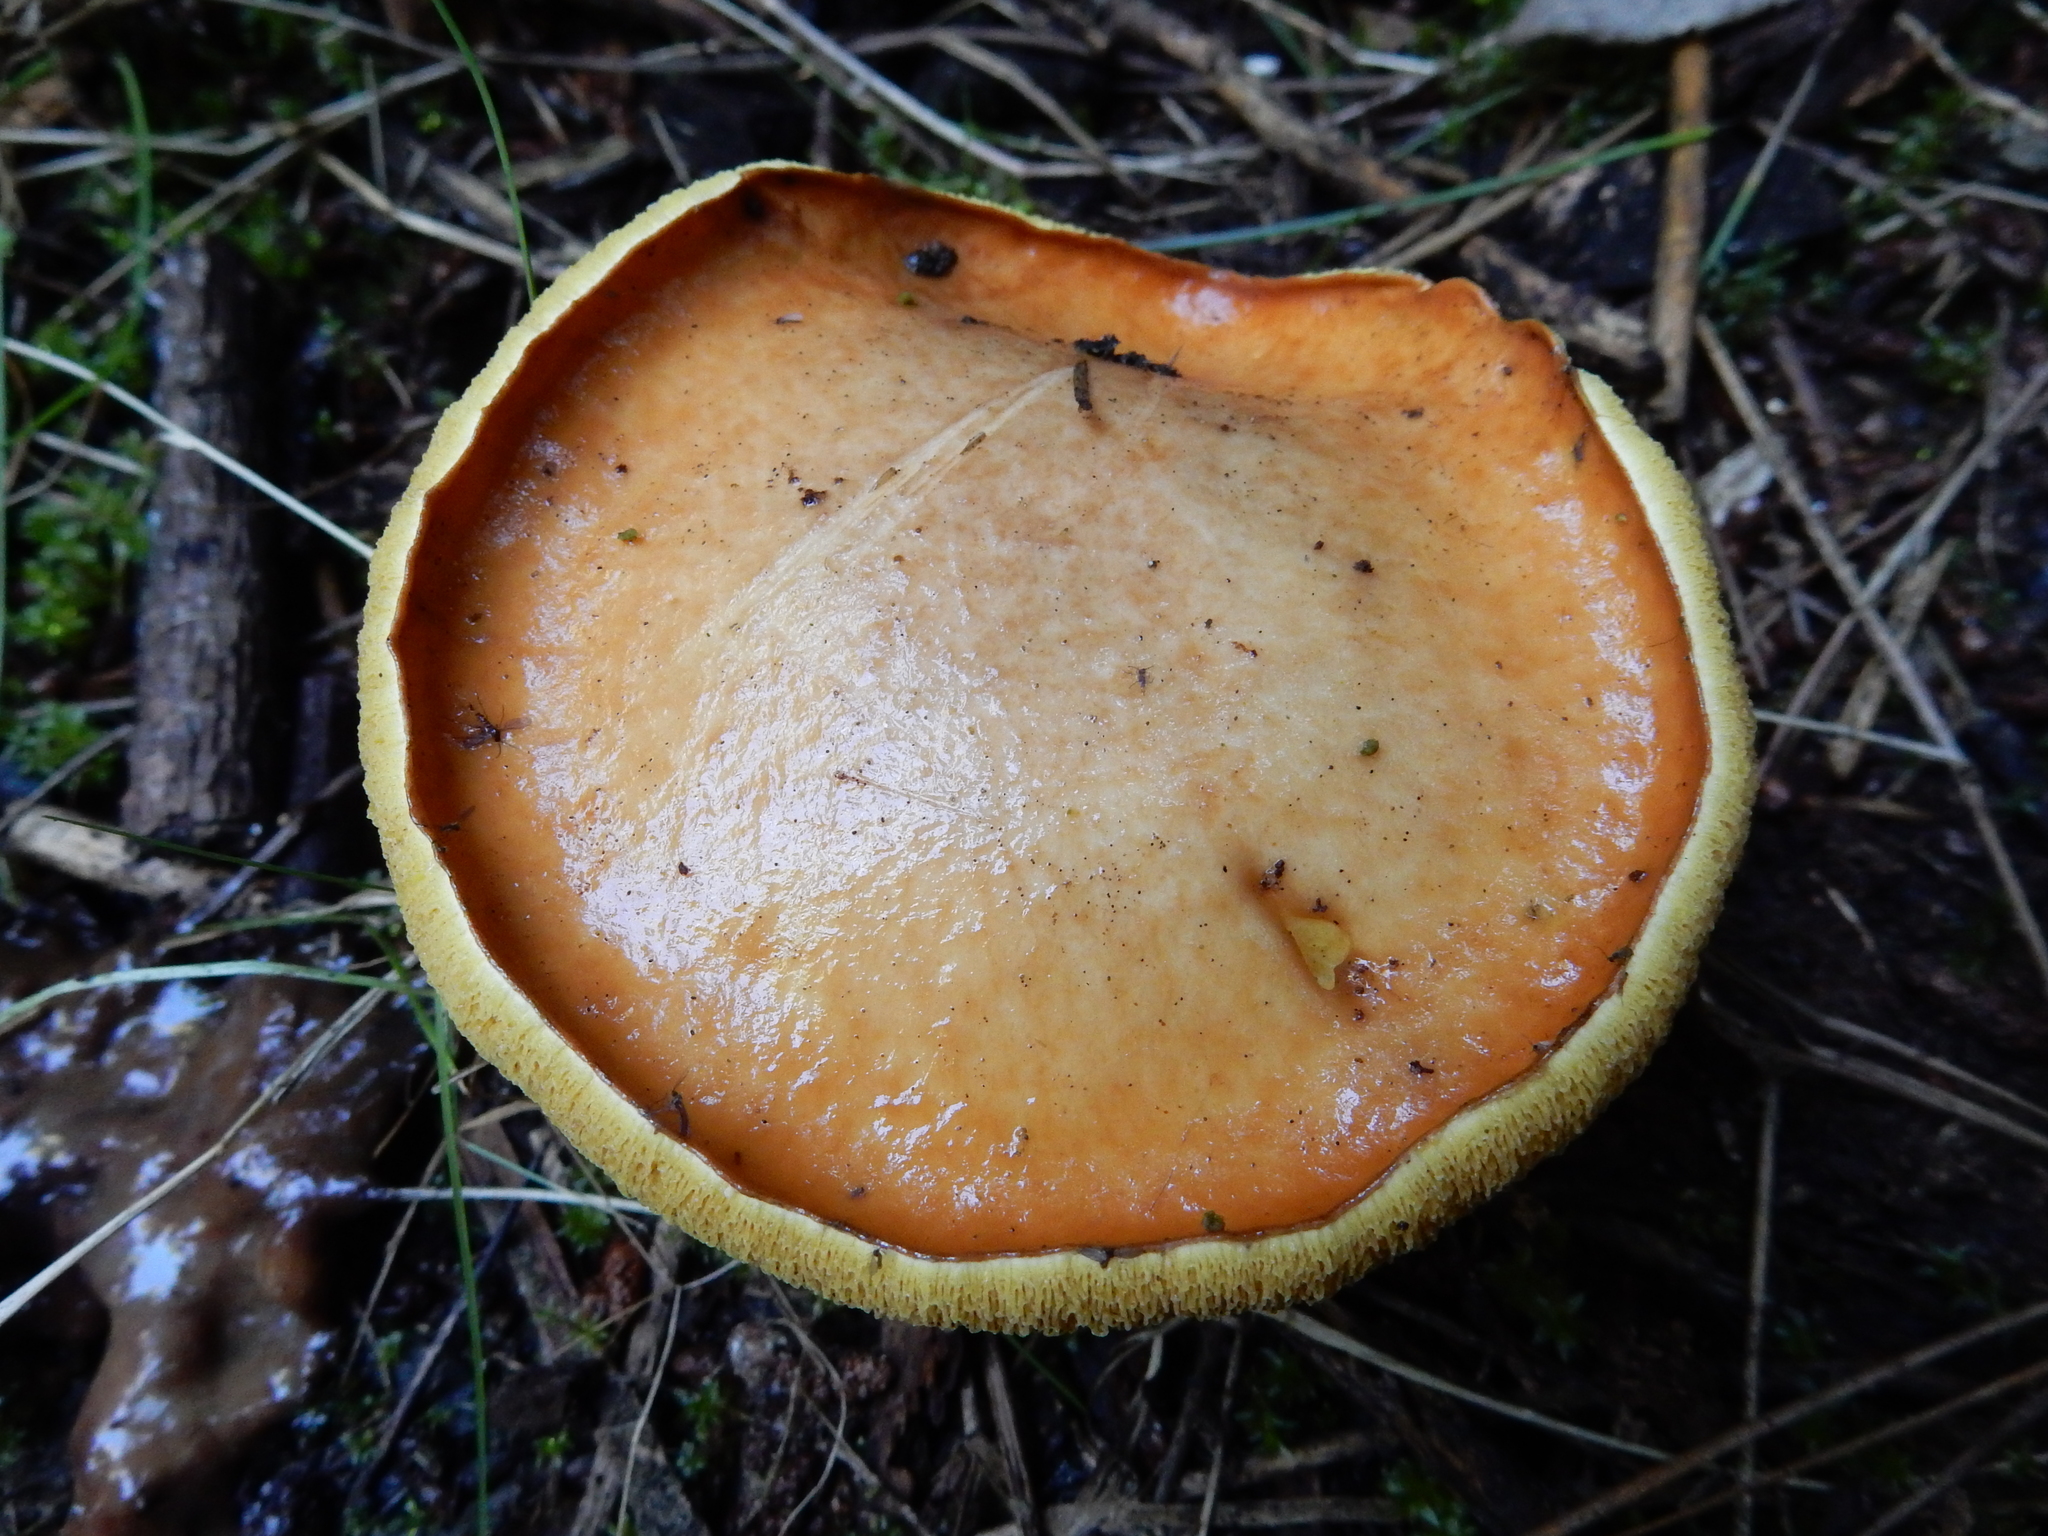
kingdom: Fungi
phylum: Basidiomycota
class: Agaricomycetes
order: Boletales
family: Suillaceae
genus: Suillus
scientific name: Suillus granulatus
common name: Weeping bolete
